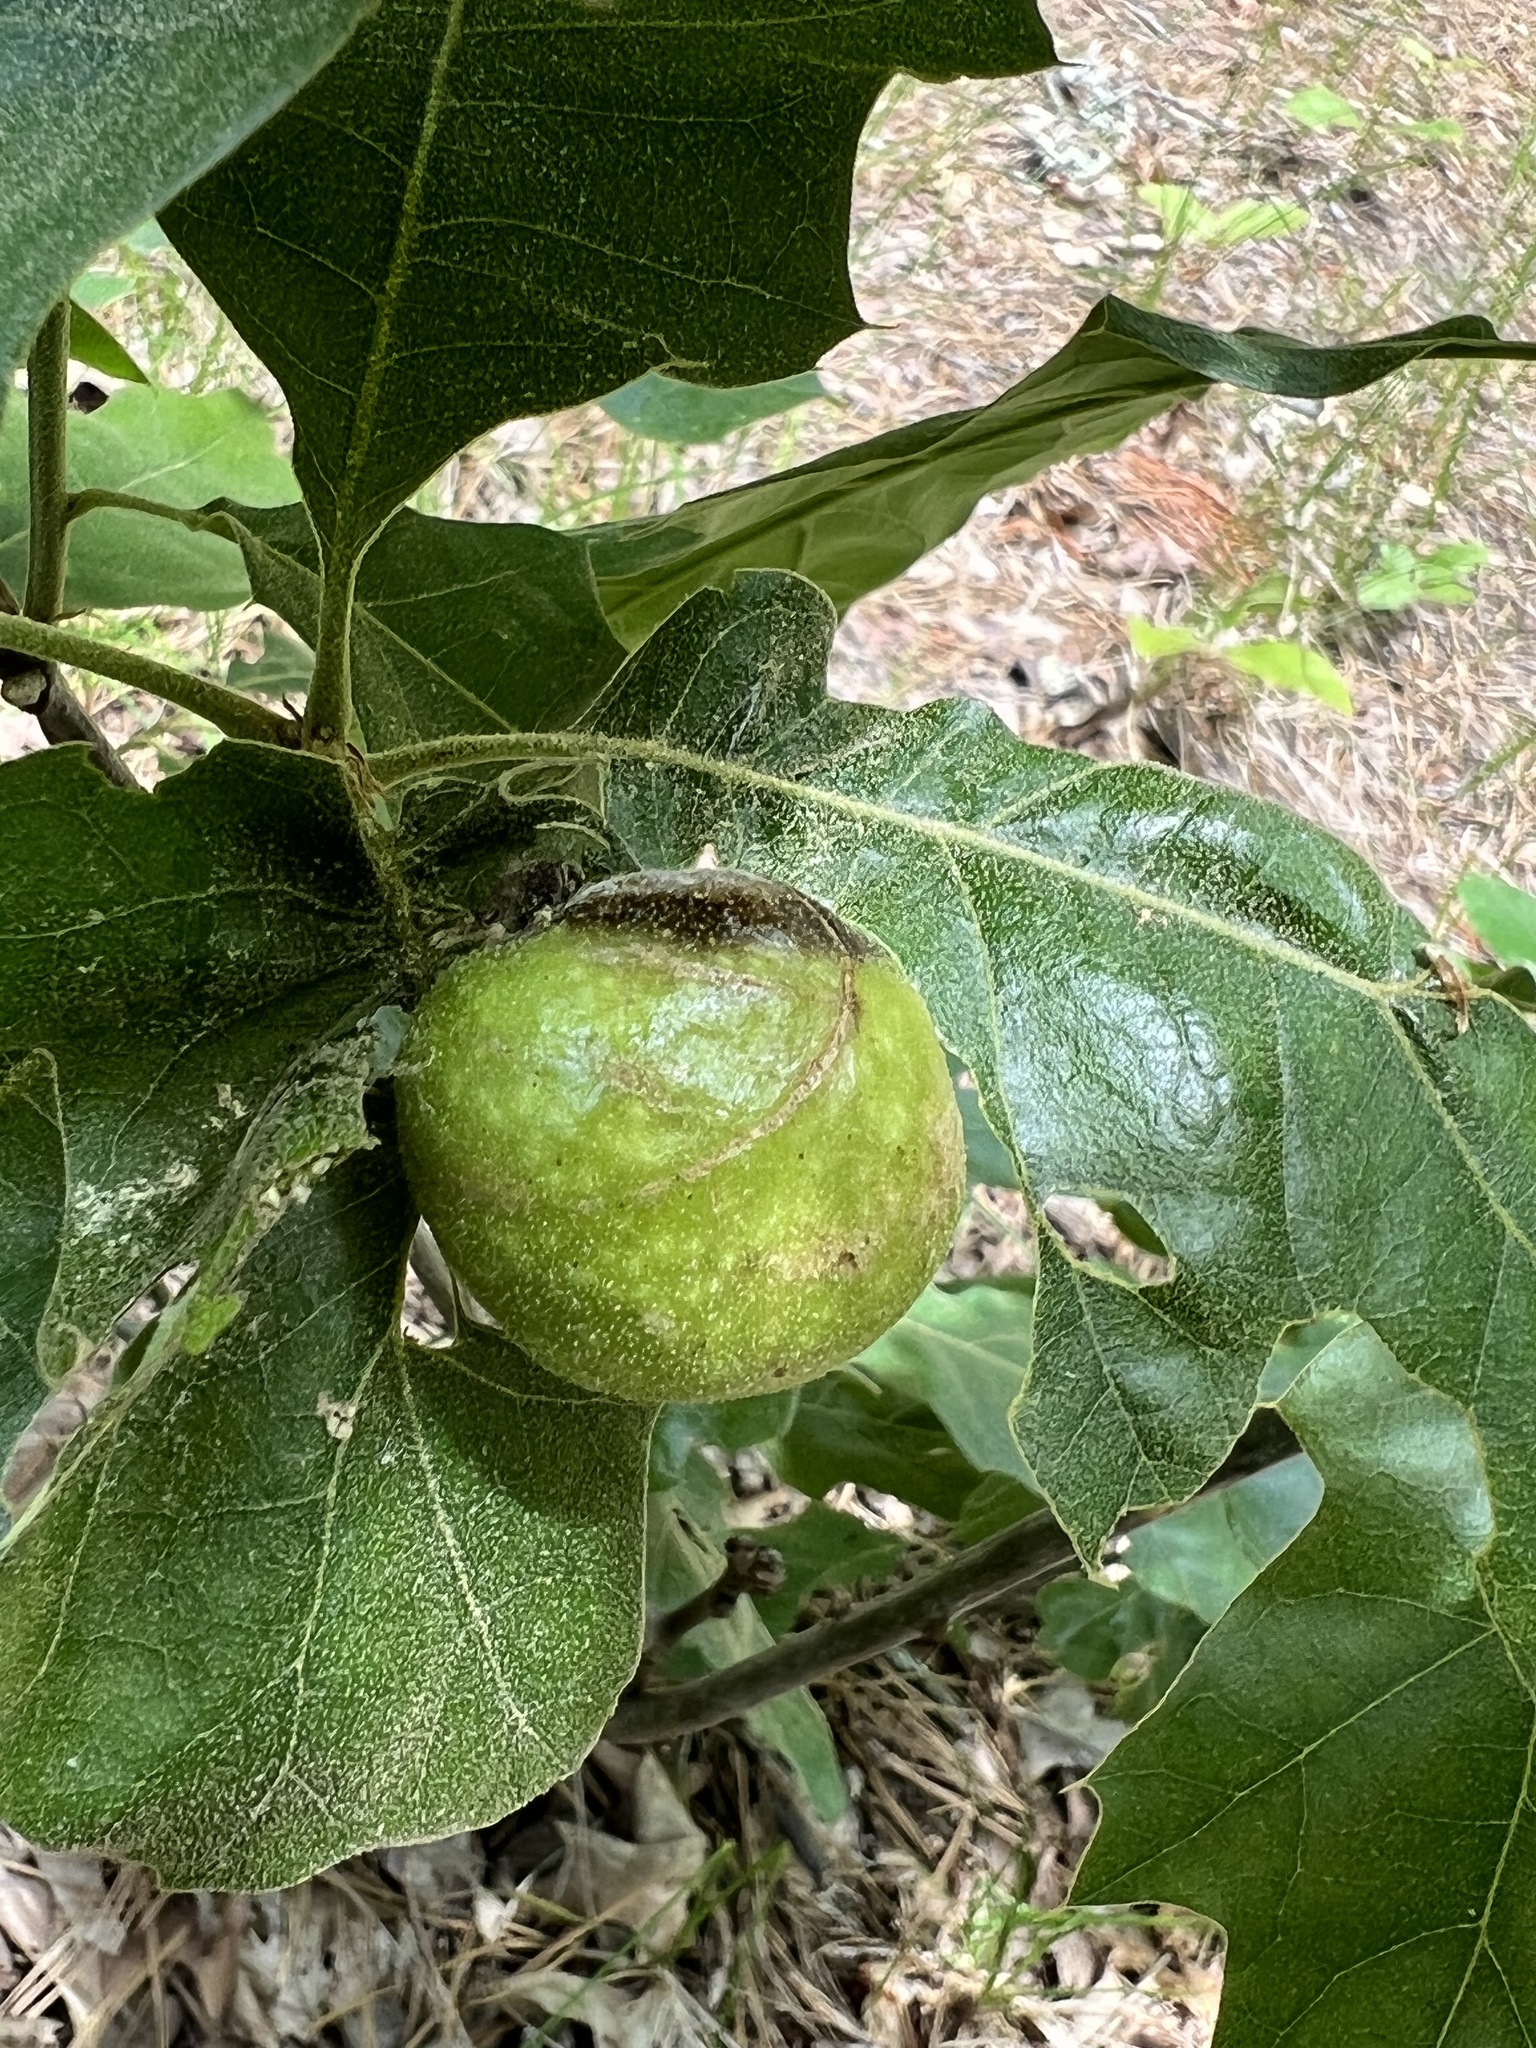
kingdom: Animalia
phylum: Arthropoda
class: Insecta
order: Hymenoptera
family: Cynipidae
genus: Amphibolips
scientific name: Amphibolips
